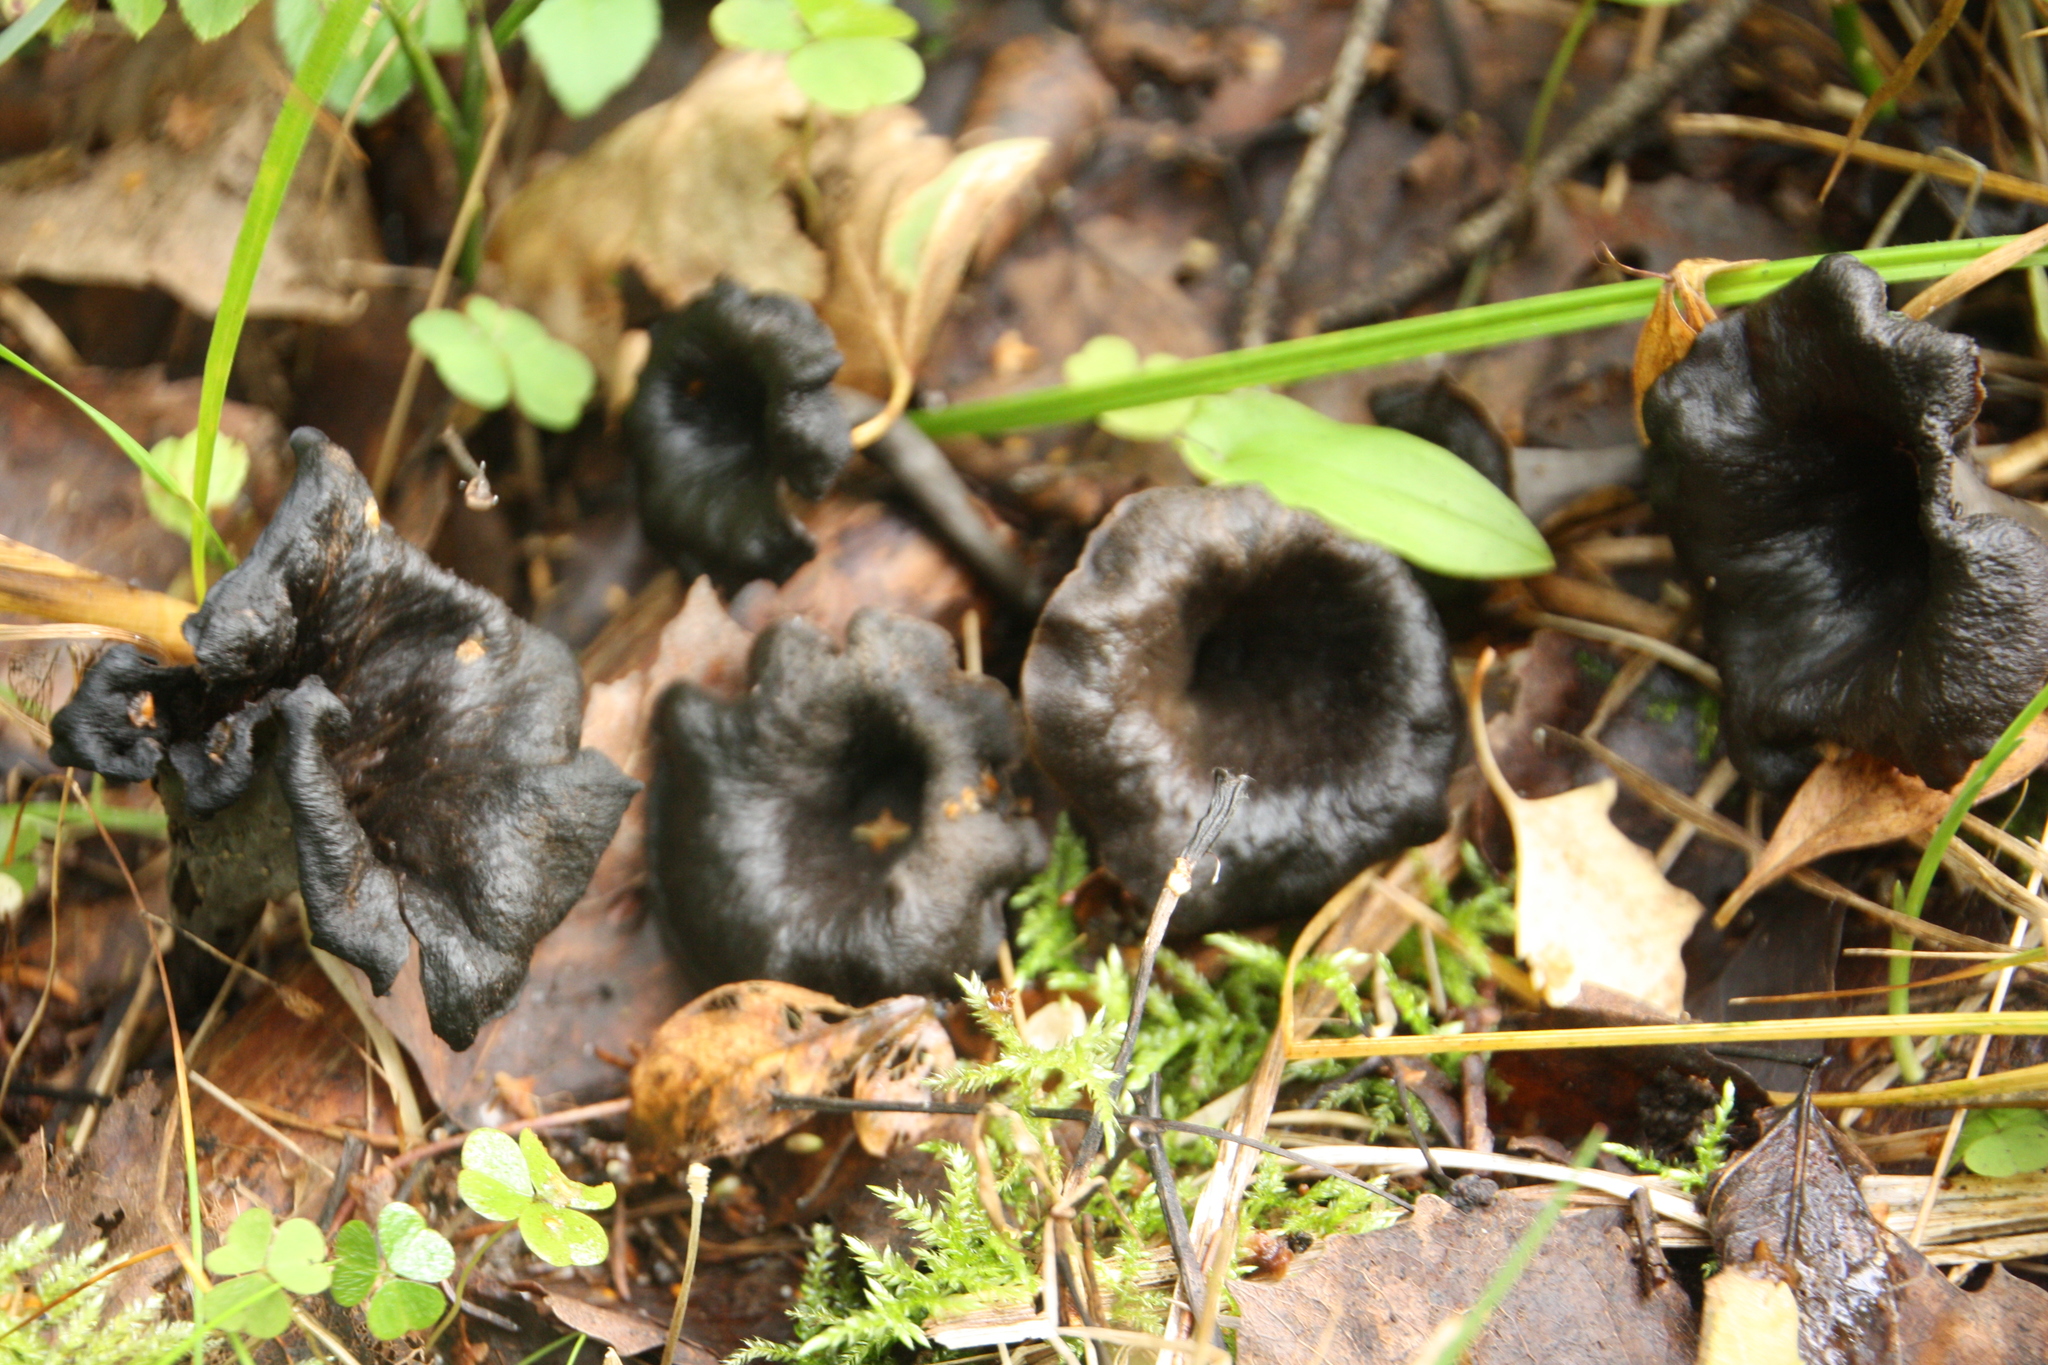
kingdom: Fungi
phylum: Basidiomycota
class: Agaricomycetes
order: Cantharellales
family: Hydnaceae
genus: Craterellus
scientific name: Craterellus cornucopioides
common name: Horn of plenty
